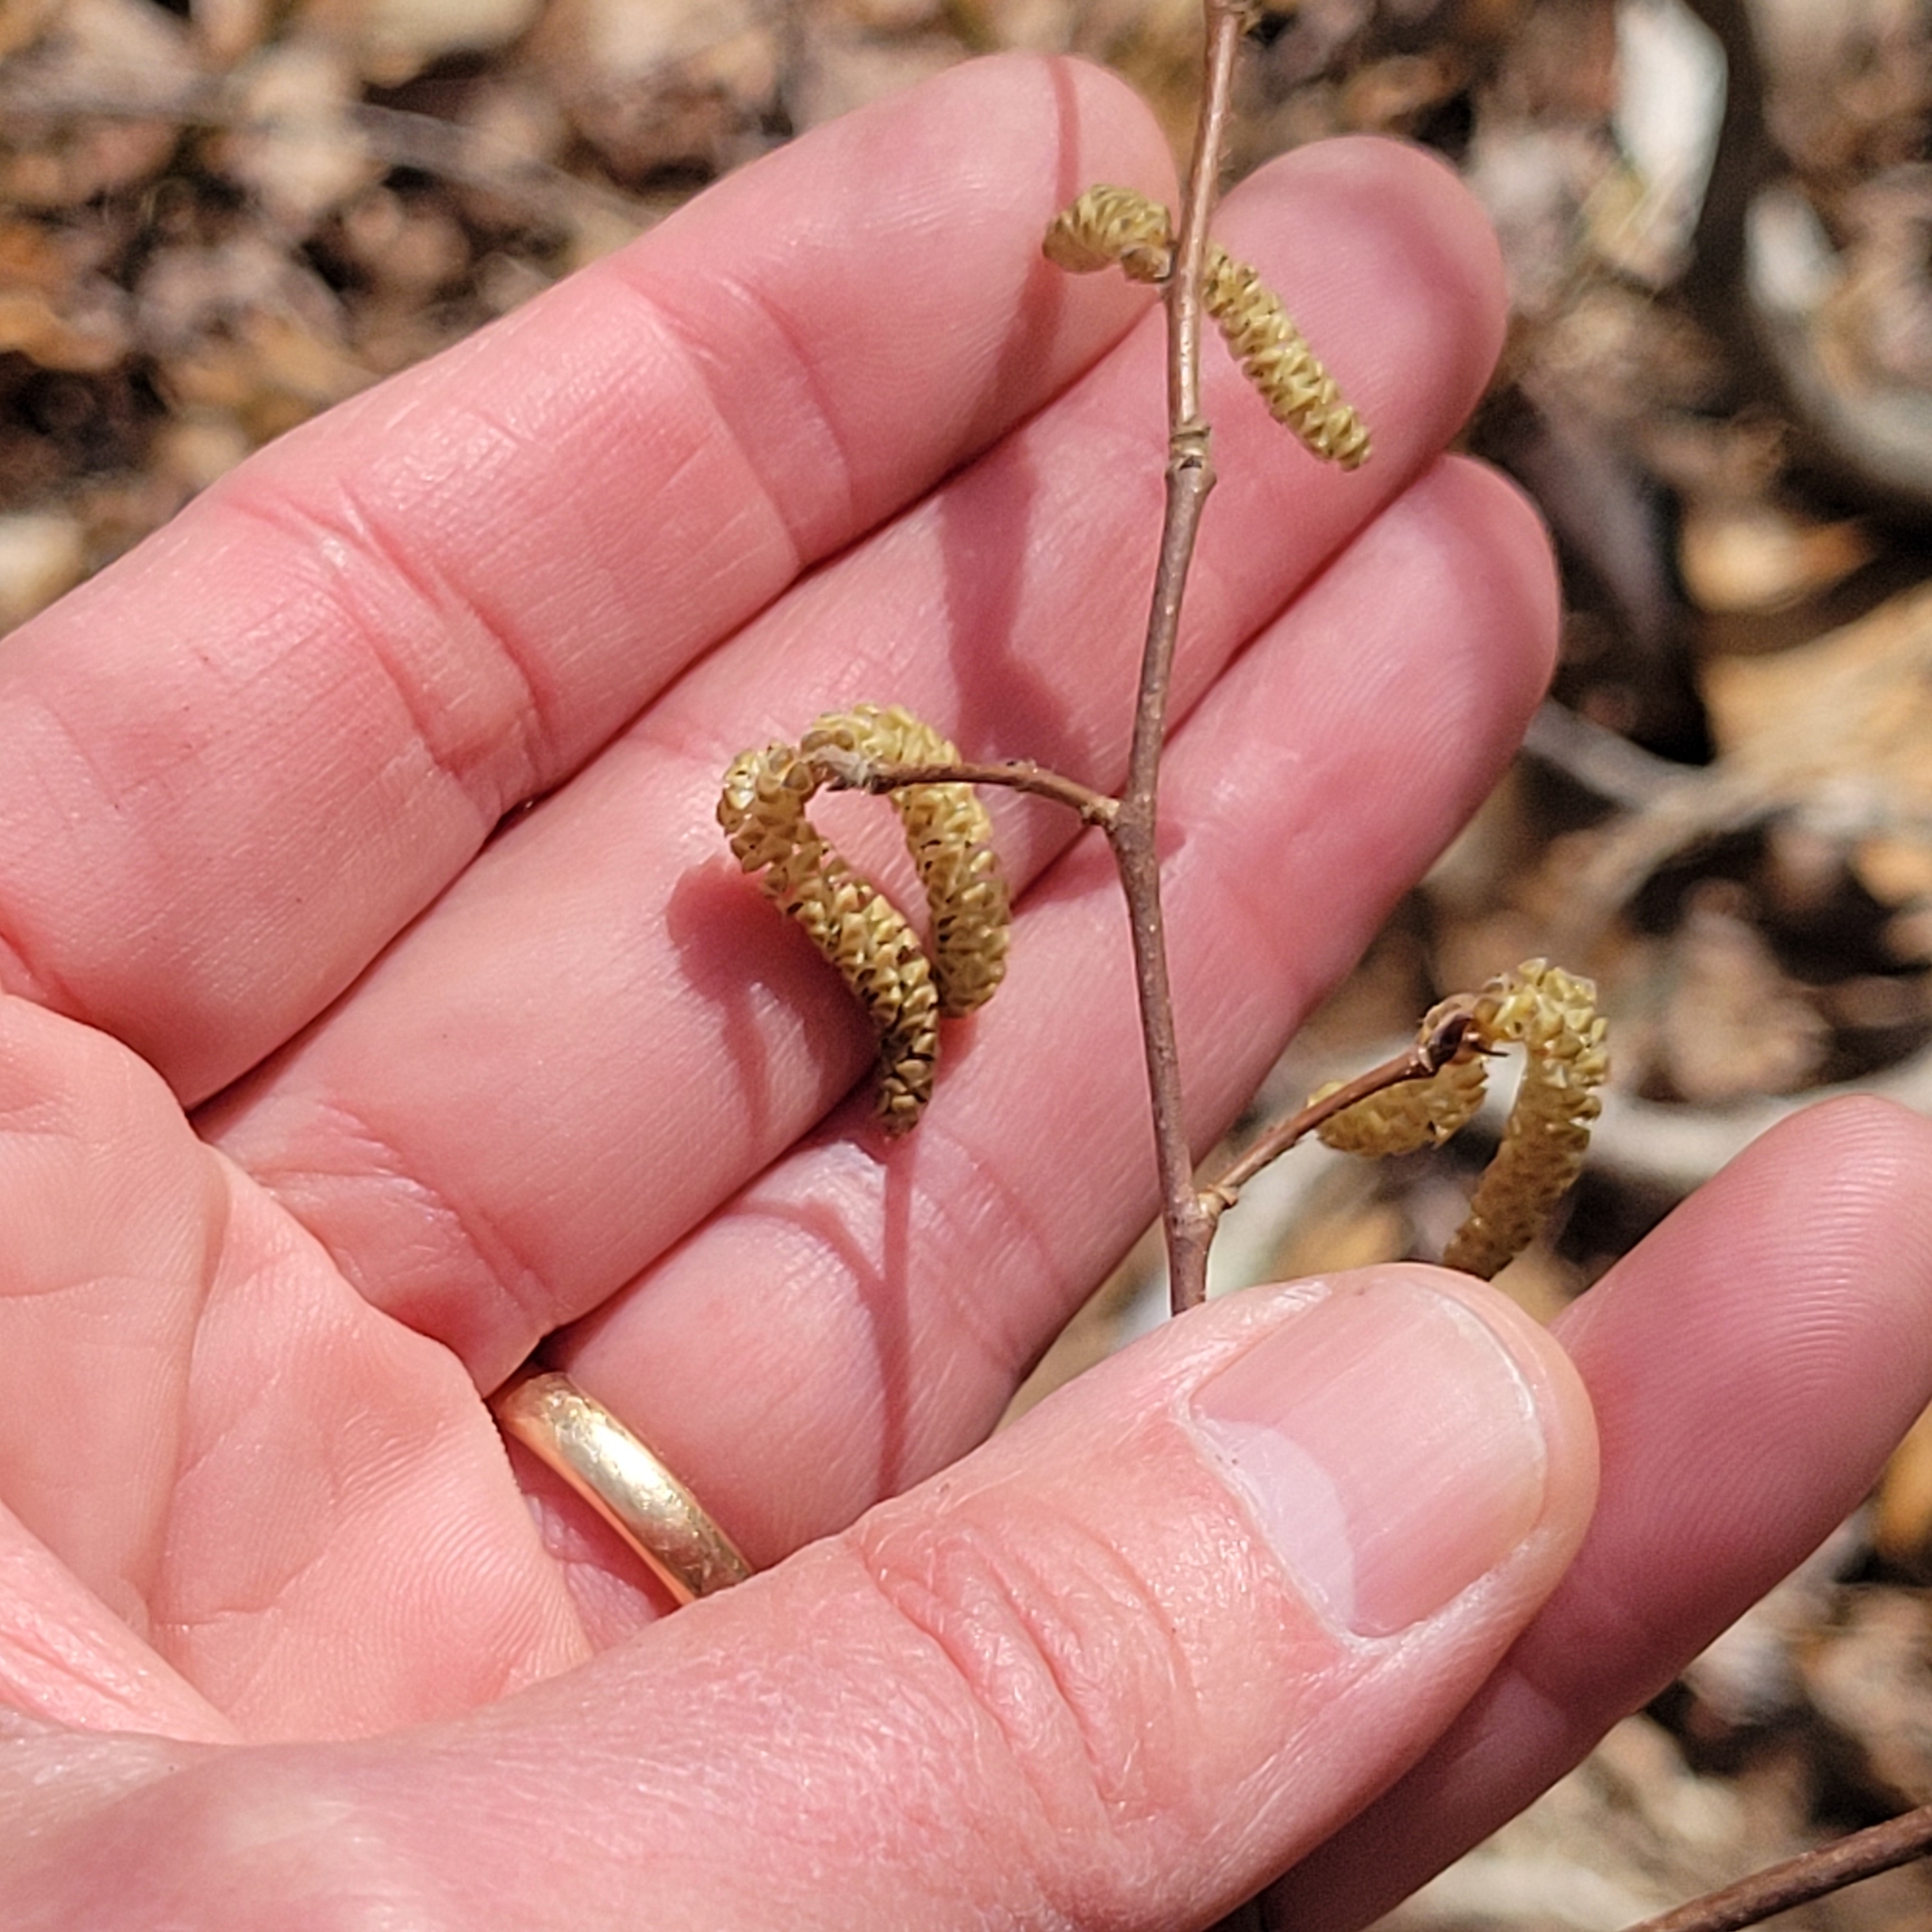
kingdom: Plantae
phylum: Tracheophyta
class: Magnoliopsida
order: Fagales
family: Betulaceae
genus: Corylus
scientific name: Corylus cornuta
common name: Beaked hazel
